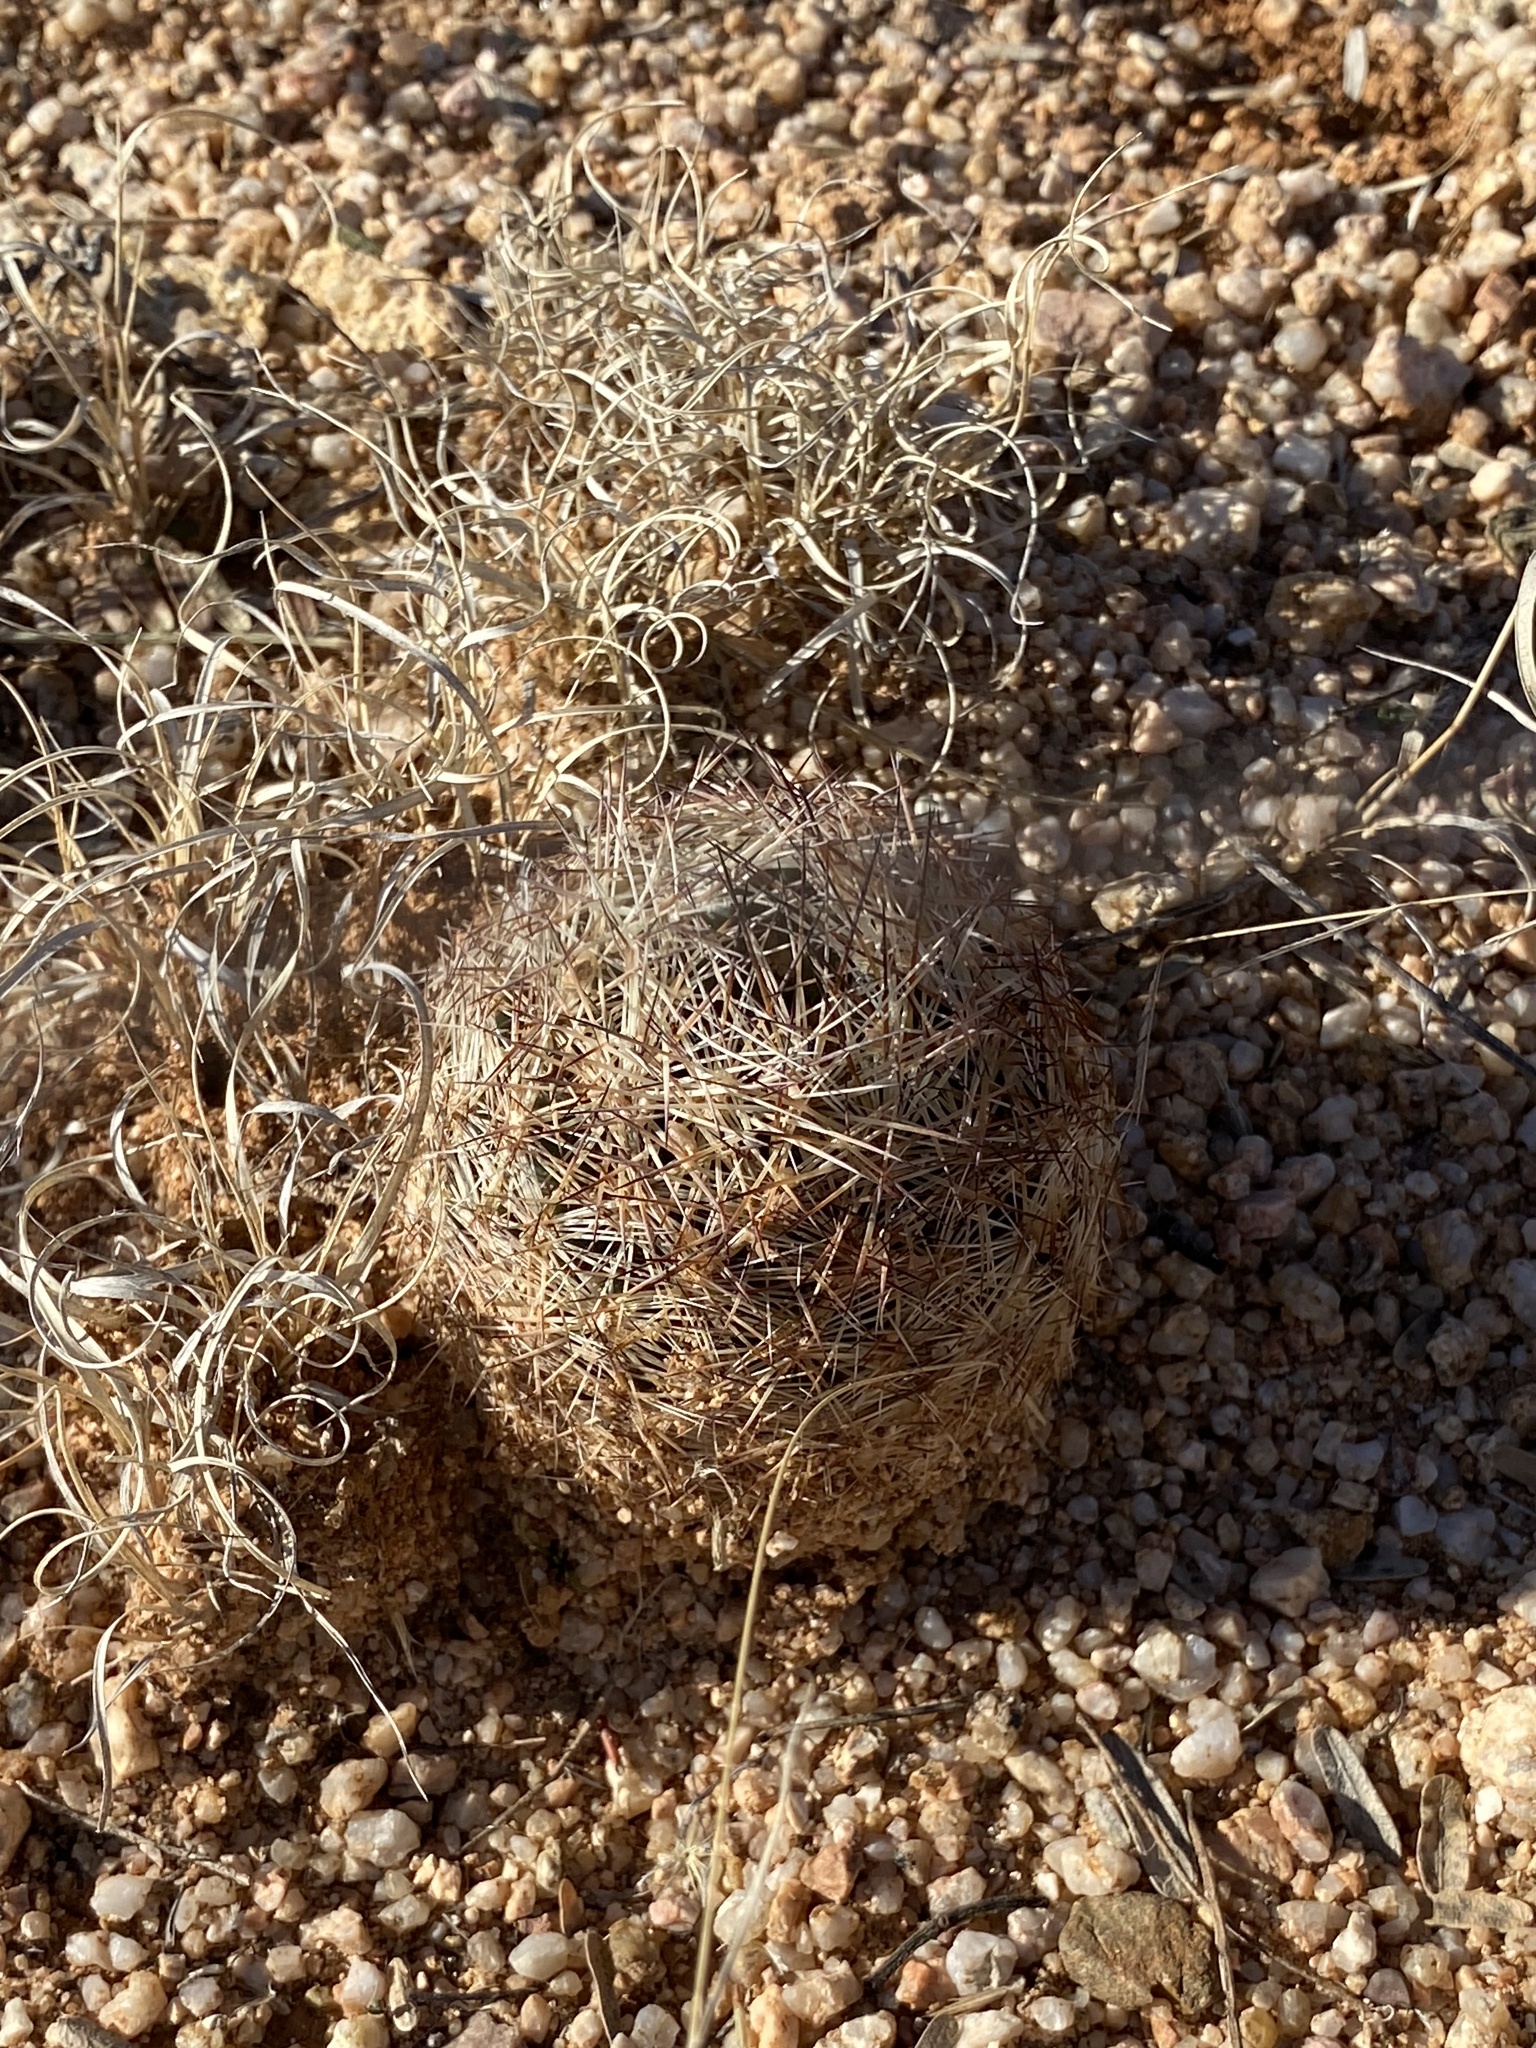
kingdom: Plantae
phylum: Tracheophyta
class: Magnoliopsida
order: Caryophyllales
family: Cactaceae
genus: Sclerocactus
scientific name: Sclerocactus johnsonii
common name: Eight-spine fishhook cactus
